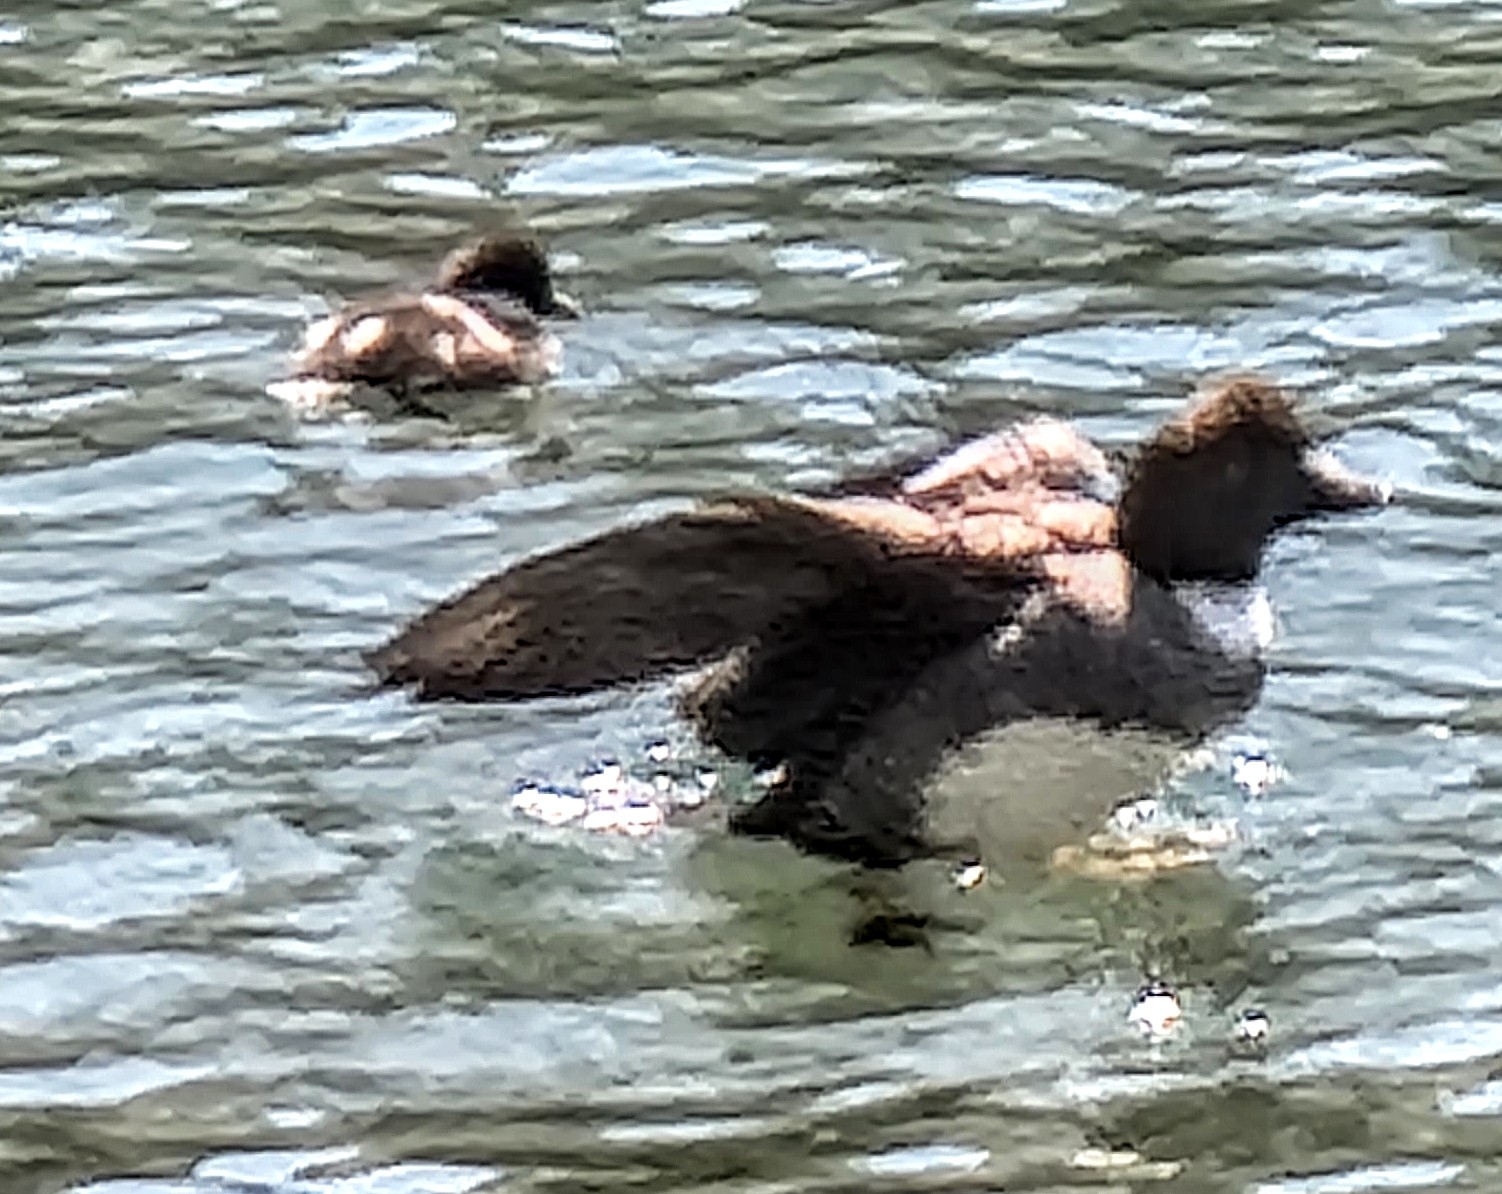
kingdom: Animalia
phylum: Chordata
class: Aves
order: Anseriformes
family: Anatidae
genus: Bucephala
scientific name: Bucephala islandica
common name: Barrow's goldeneye
